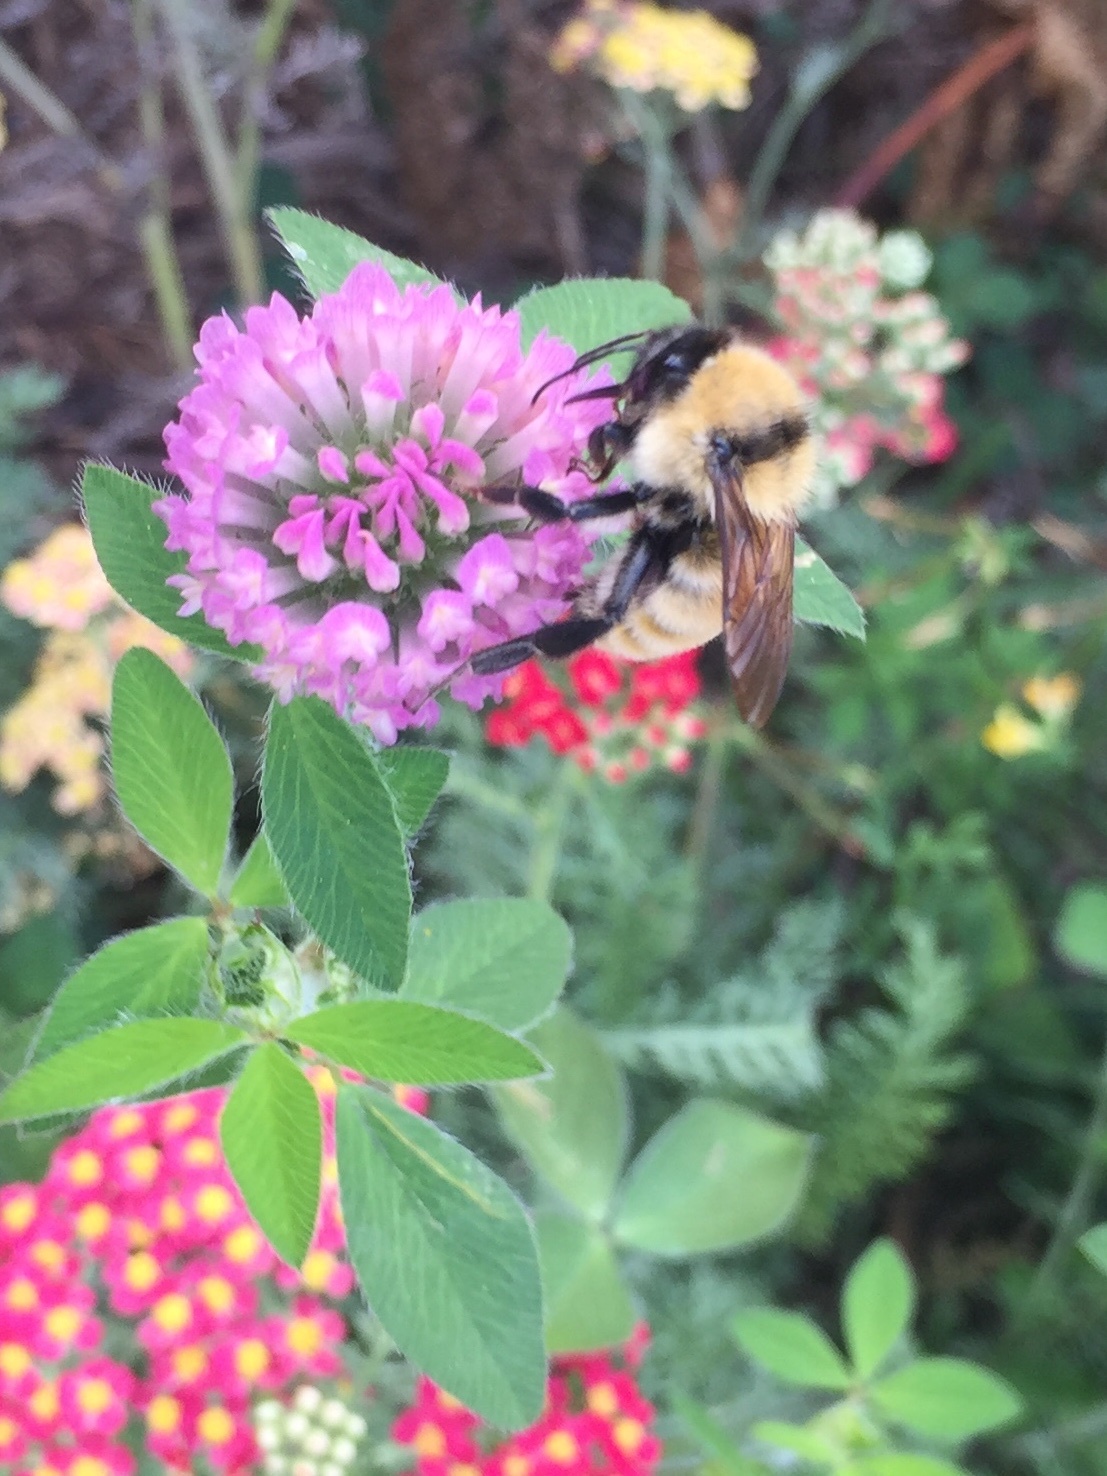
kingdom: Animalia
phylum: Arthropoda
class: Insecta
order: Hymenoptera
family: Apidae
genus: Bombus
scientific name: Bombus fervidus
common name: Yellow bumble bee
